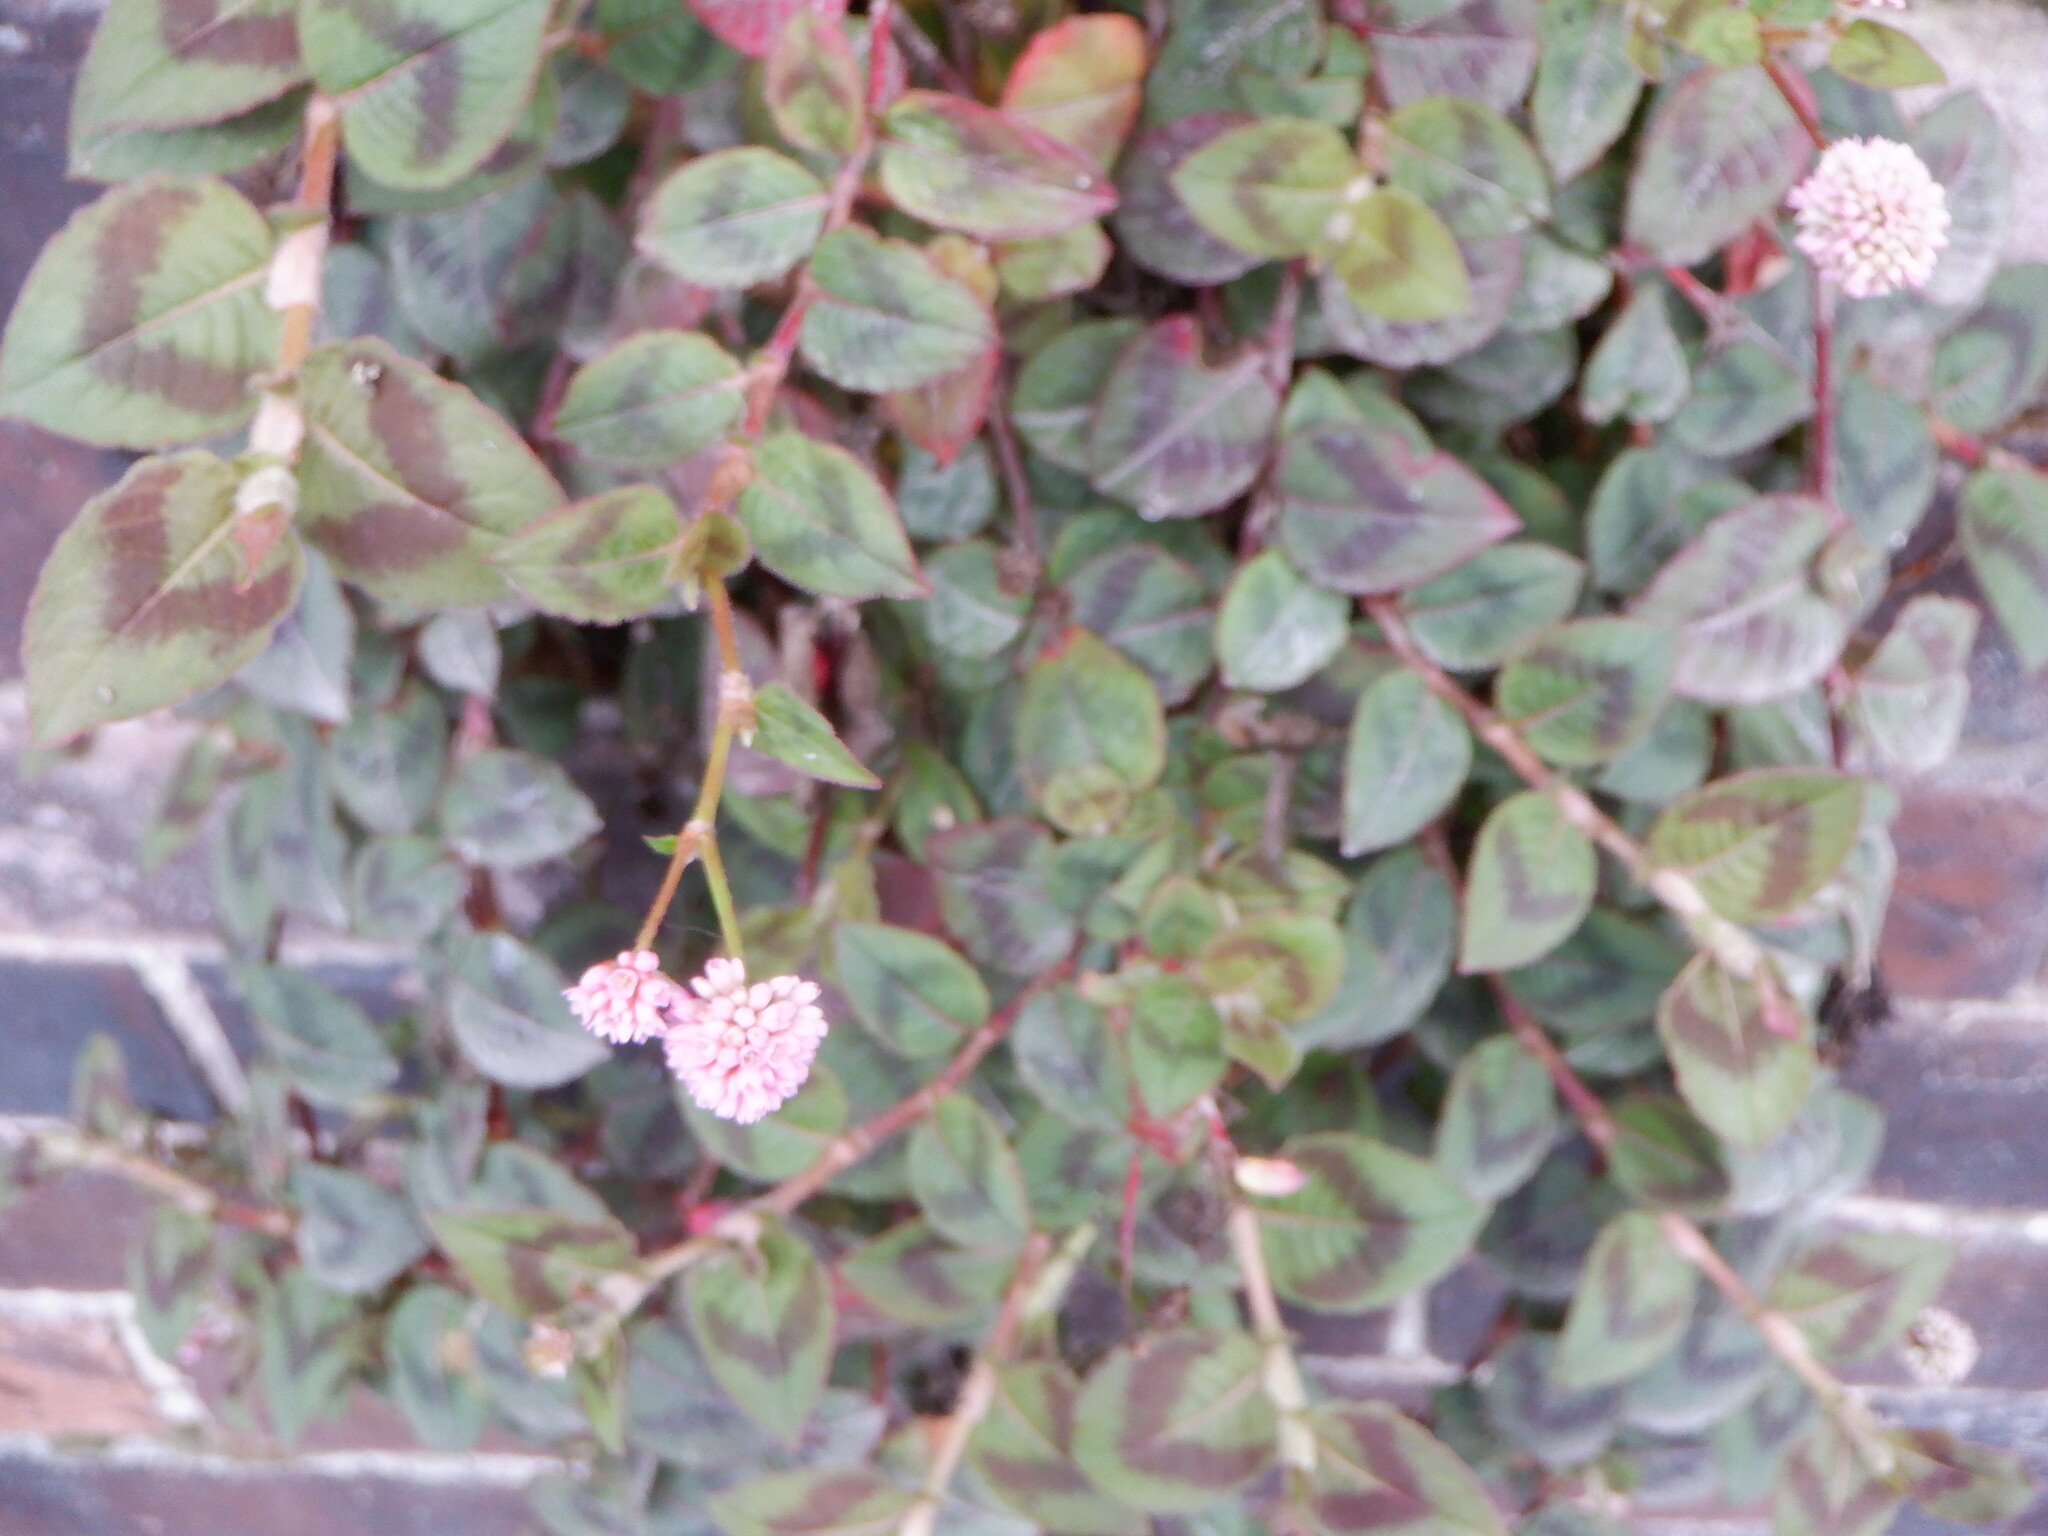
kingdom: Plantae
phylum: Tracheophyta
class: Magnoliopsida
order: Caryophyllales
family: Polygonaceae
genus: Persicaria
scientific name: Persicaria capitata
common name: Pinkhead smartweed
